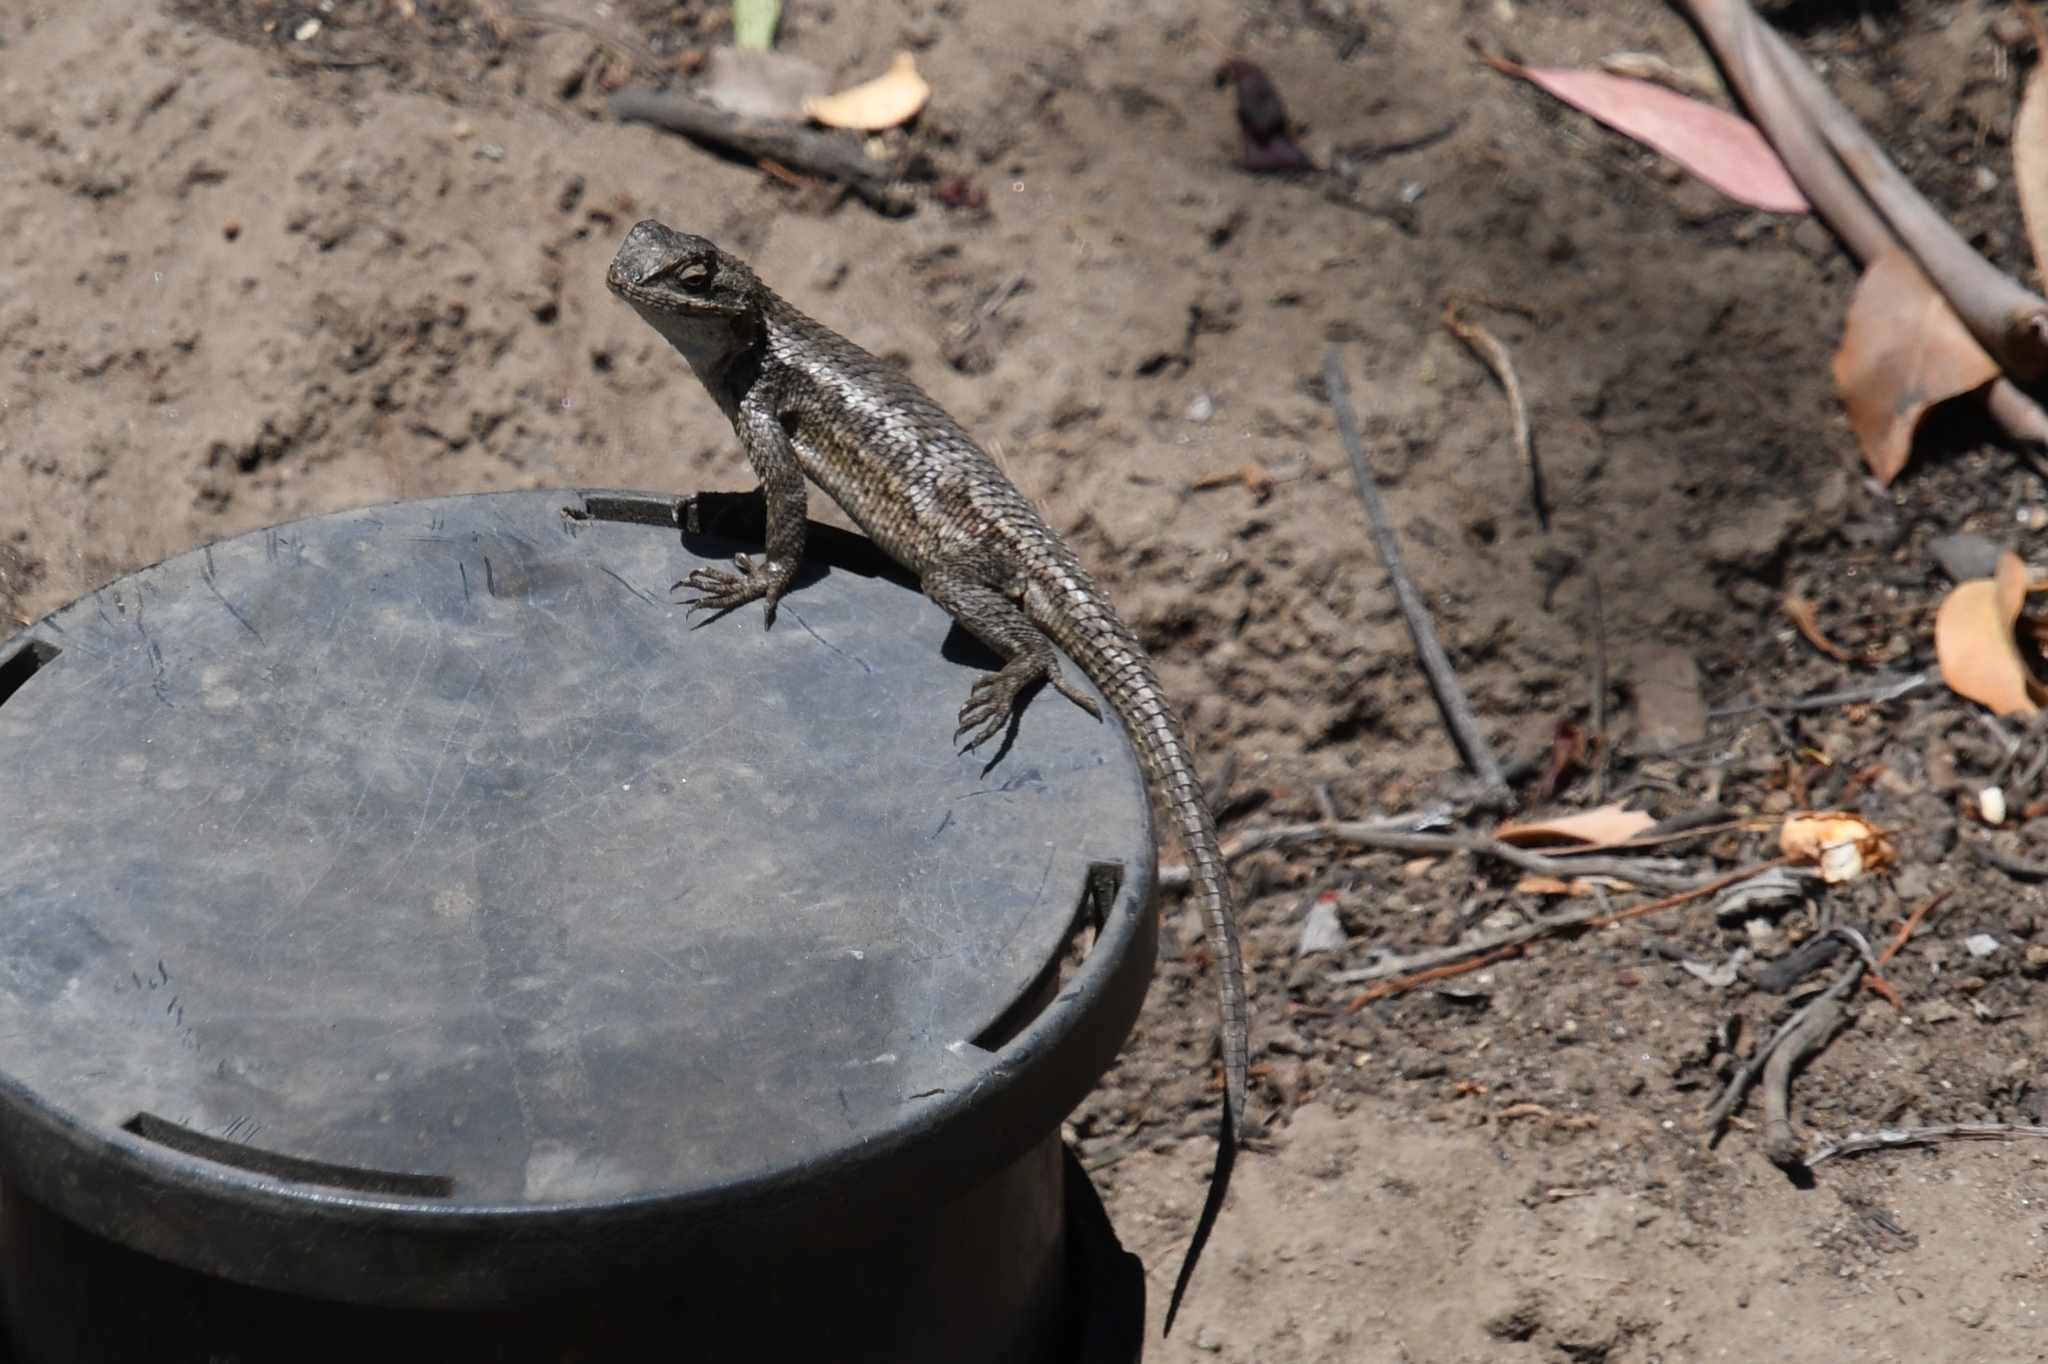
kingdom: Animalia
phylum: Chordata
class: Squamata
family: Phrynosomatidae
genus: Sceloporus
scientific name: Sceloporus occidentalis
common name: Western fence lizard
